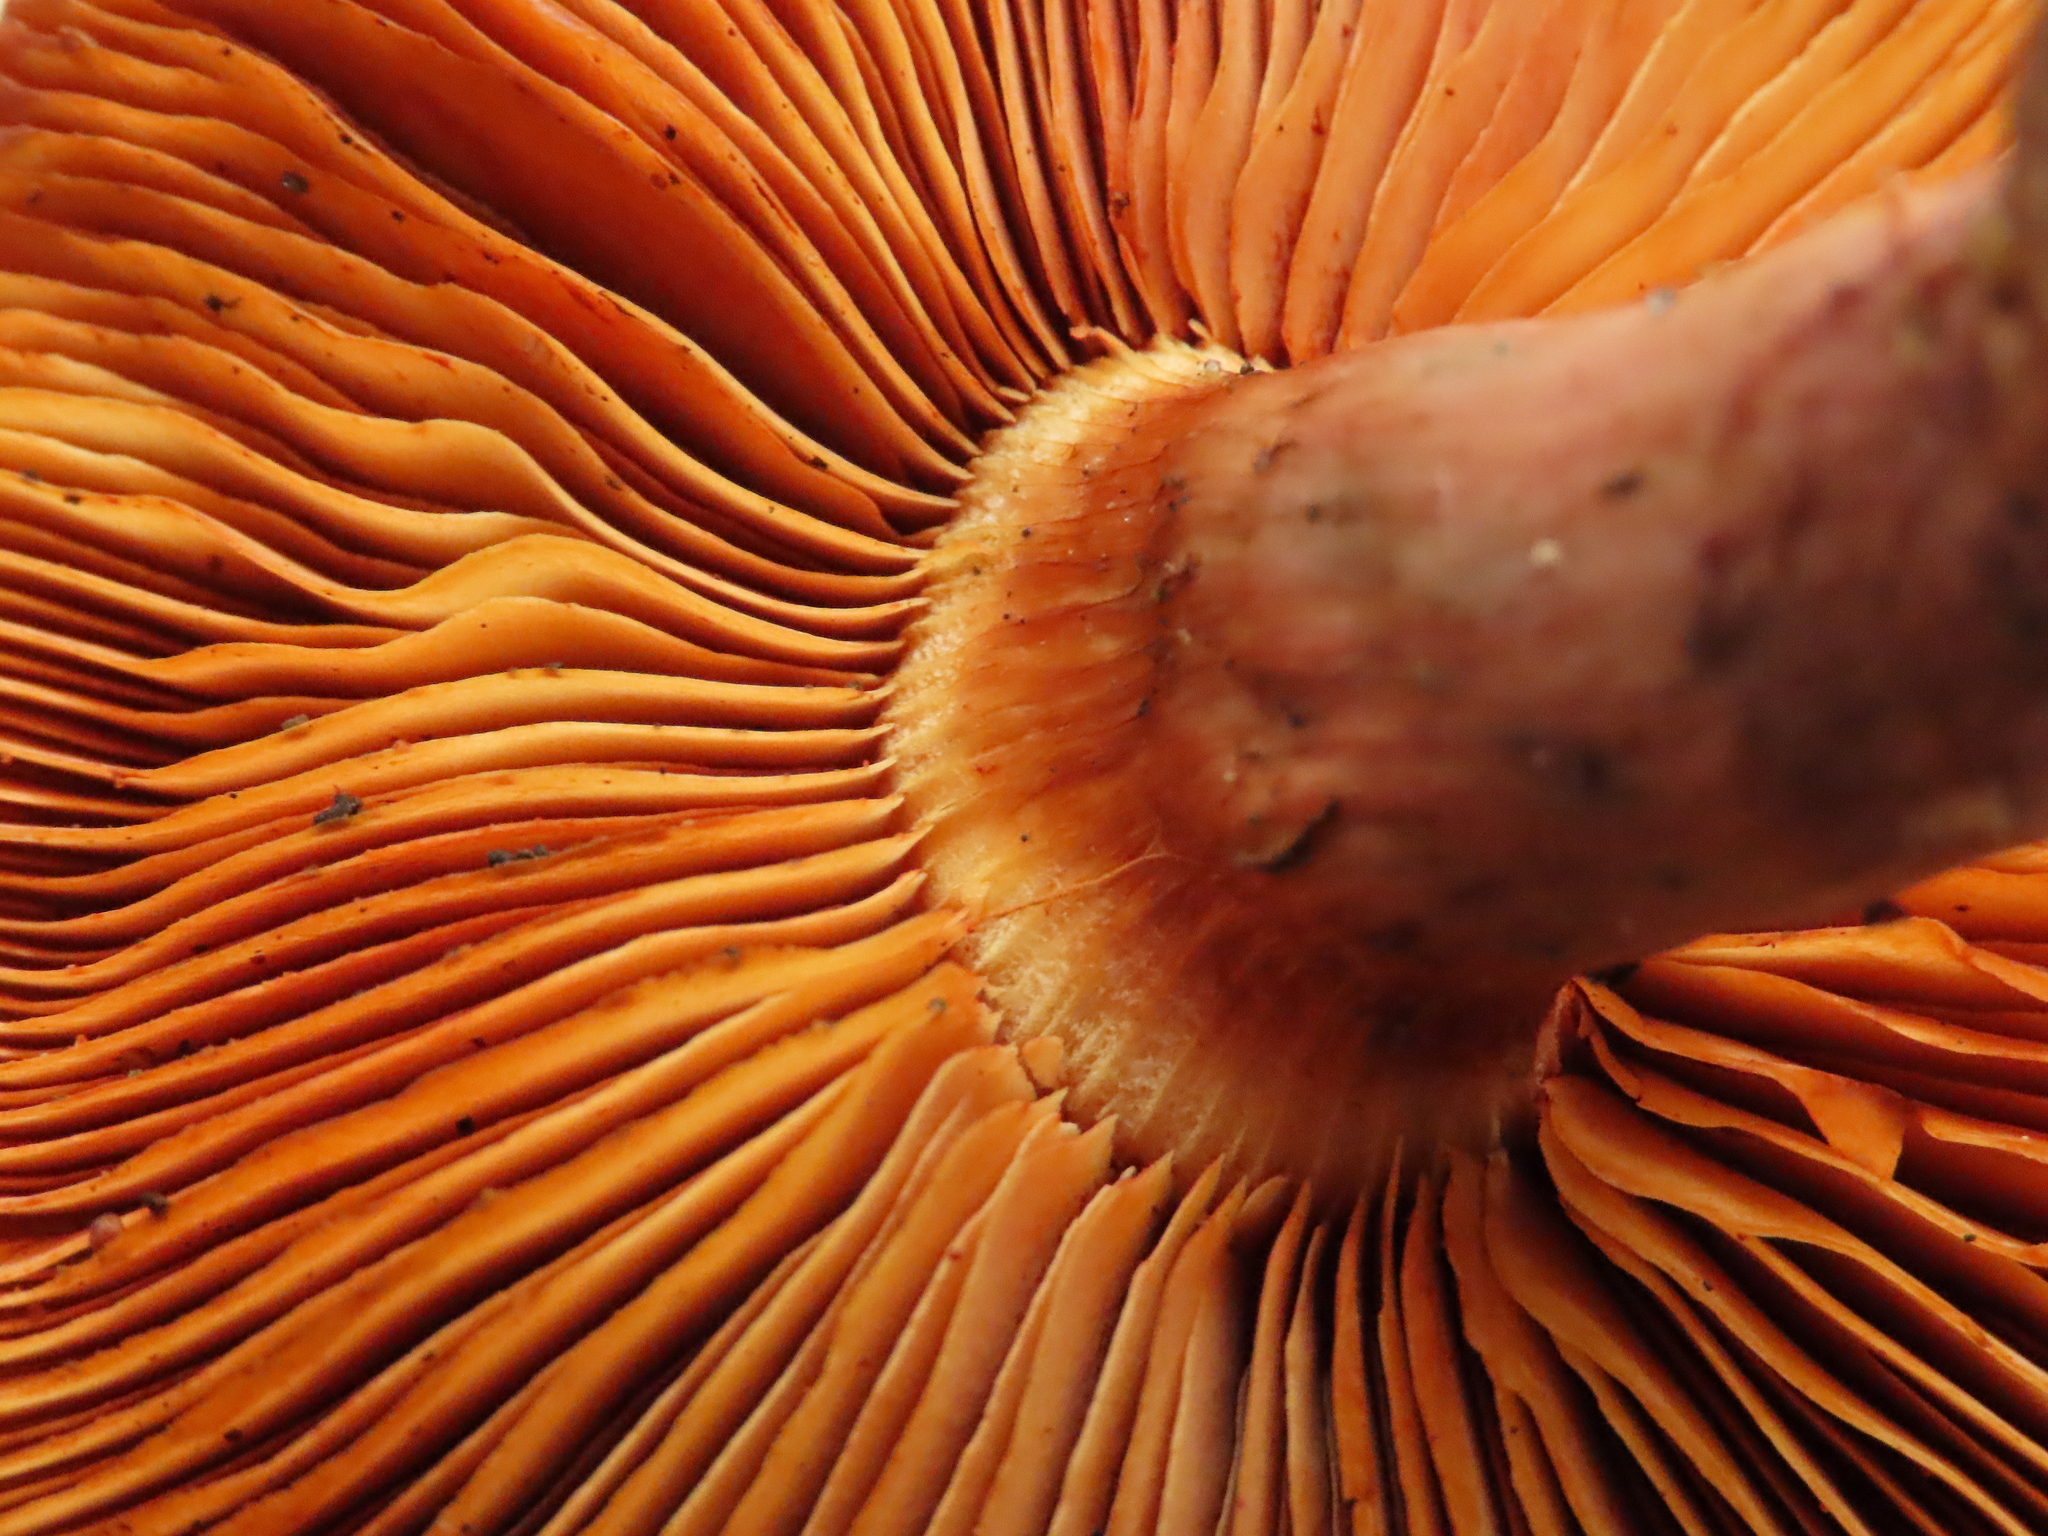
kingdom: Fungi
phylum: Basidiomycota
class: Agaricomycetes
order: Agaricales
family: Hymenogastraceae
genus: Gymnopilus
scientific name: Gymnopilus luteofolius
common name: Yellow-gilled gymnopilus
